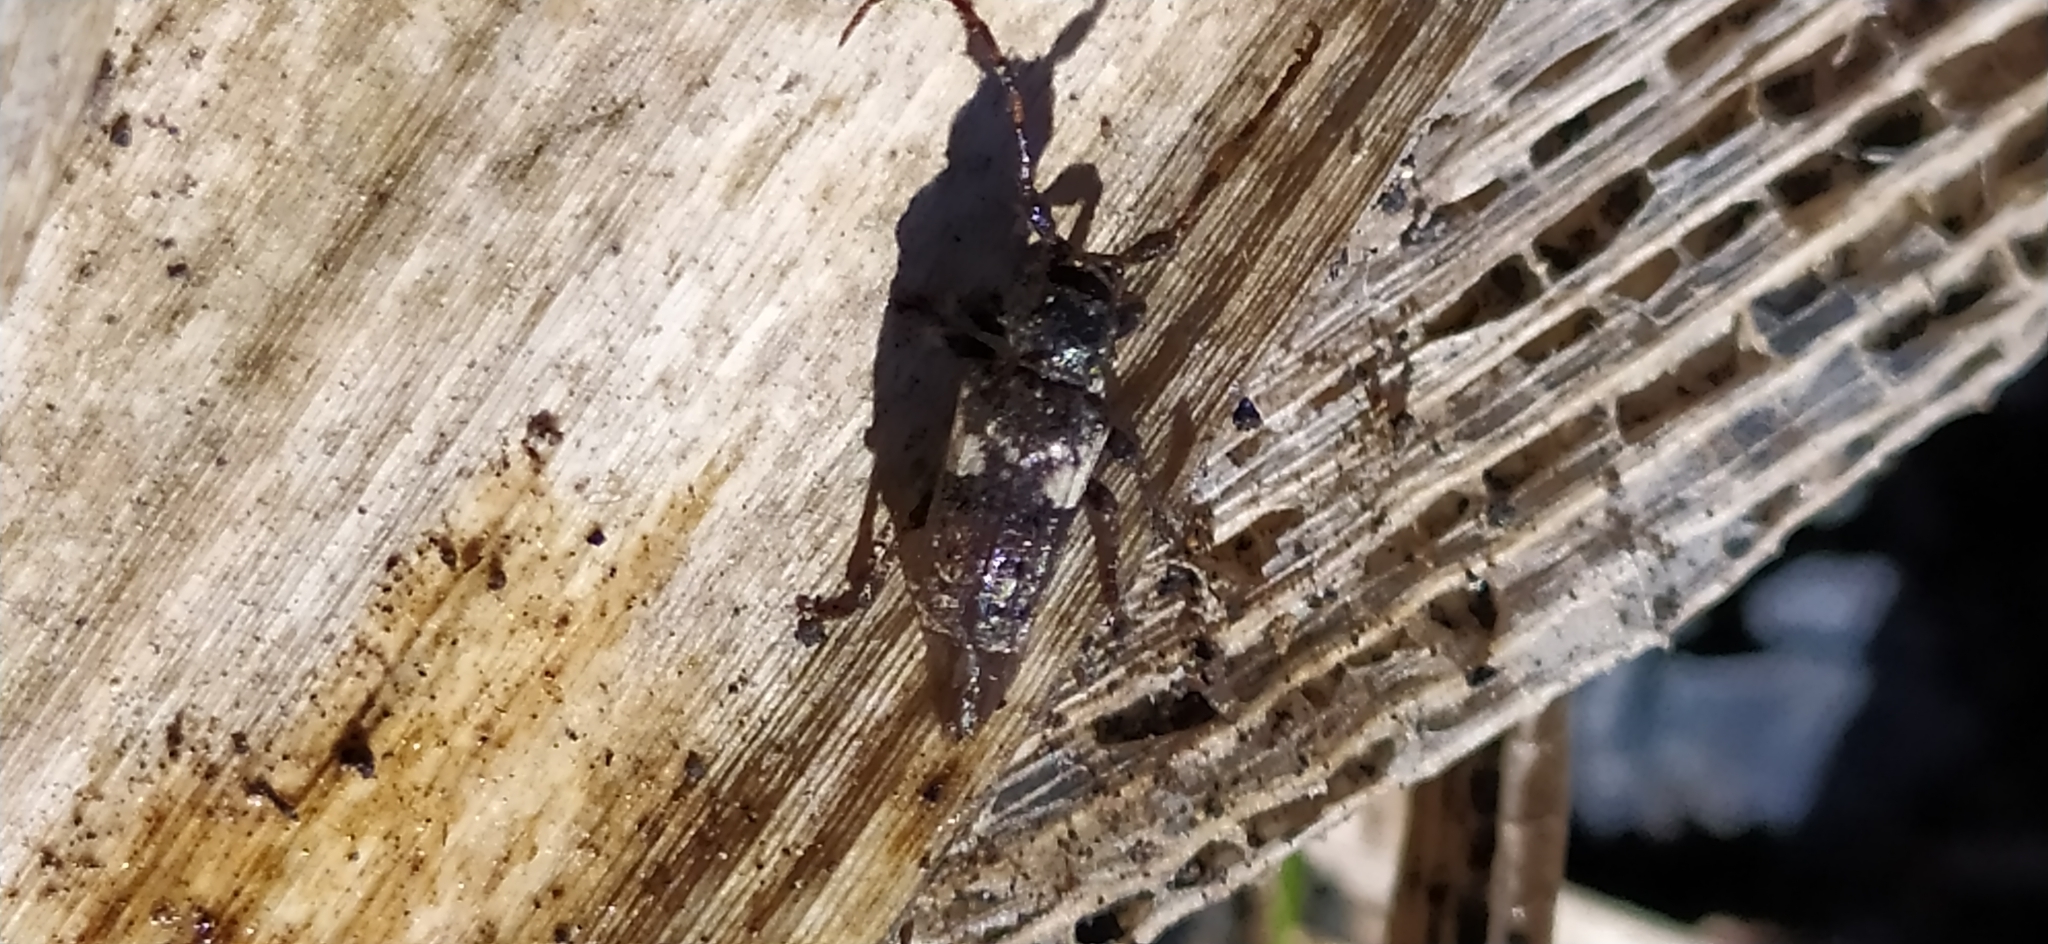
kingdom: Animalia
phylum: Arthropoda
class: Insecta
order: Coleoptera
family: Cerambycidae
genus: Pogonocherus
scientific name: Pogonocherus fasciculatus
